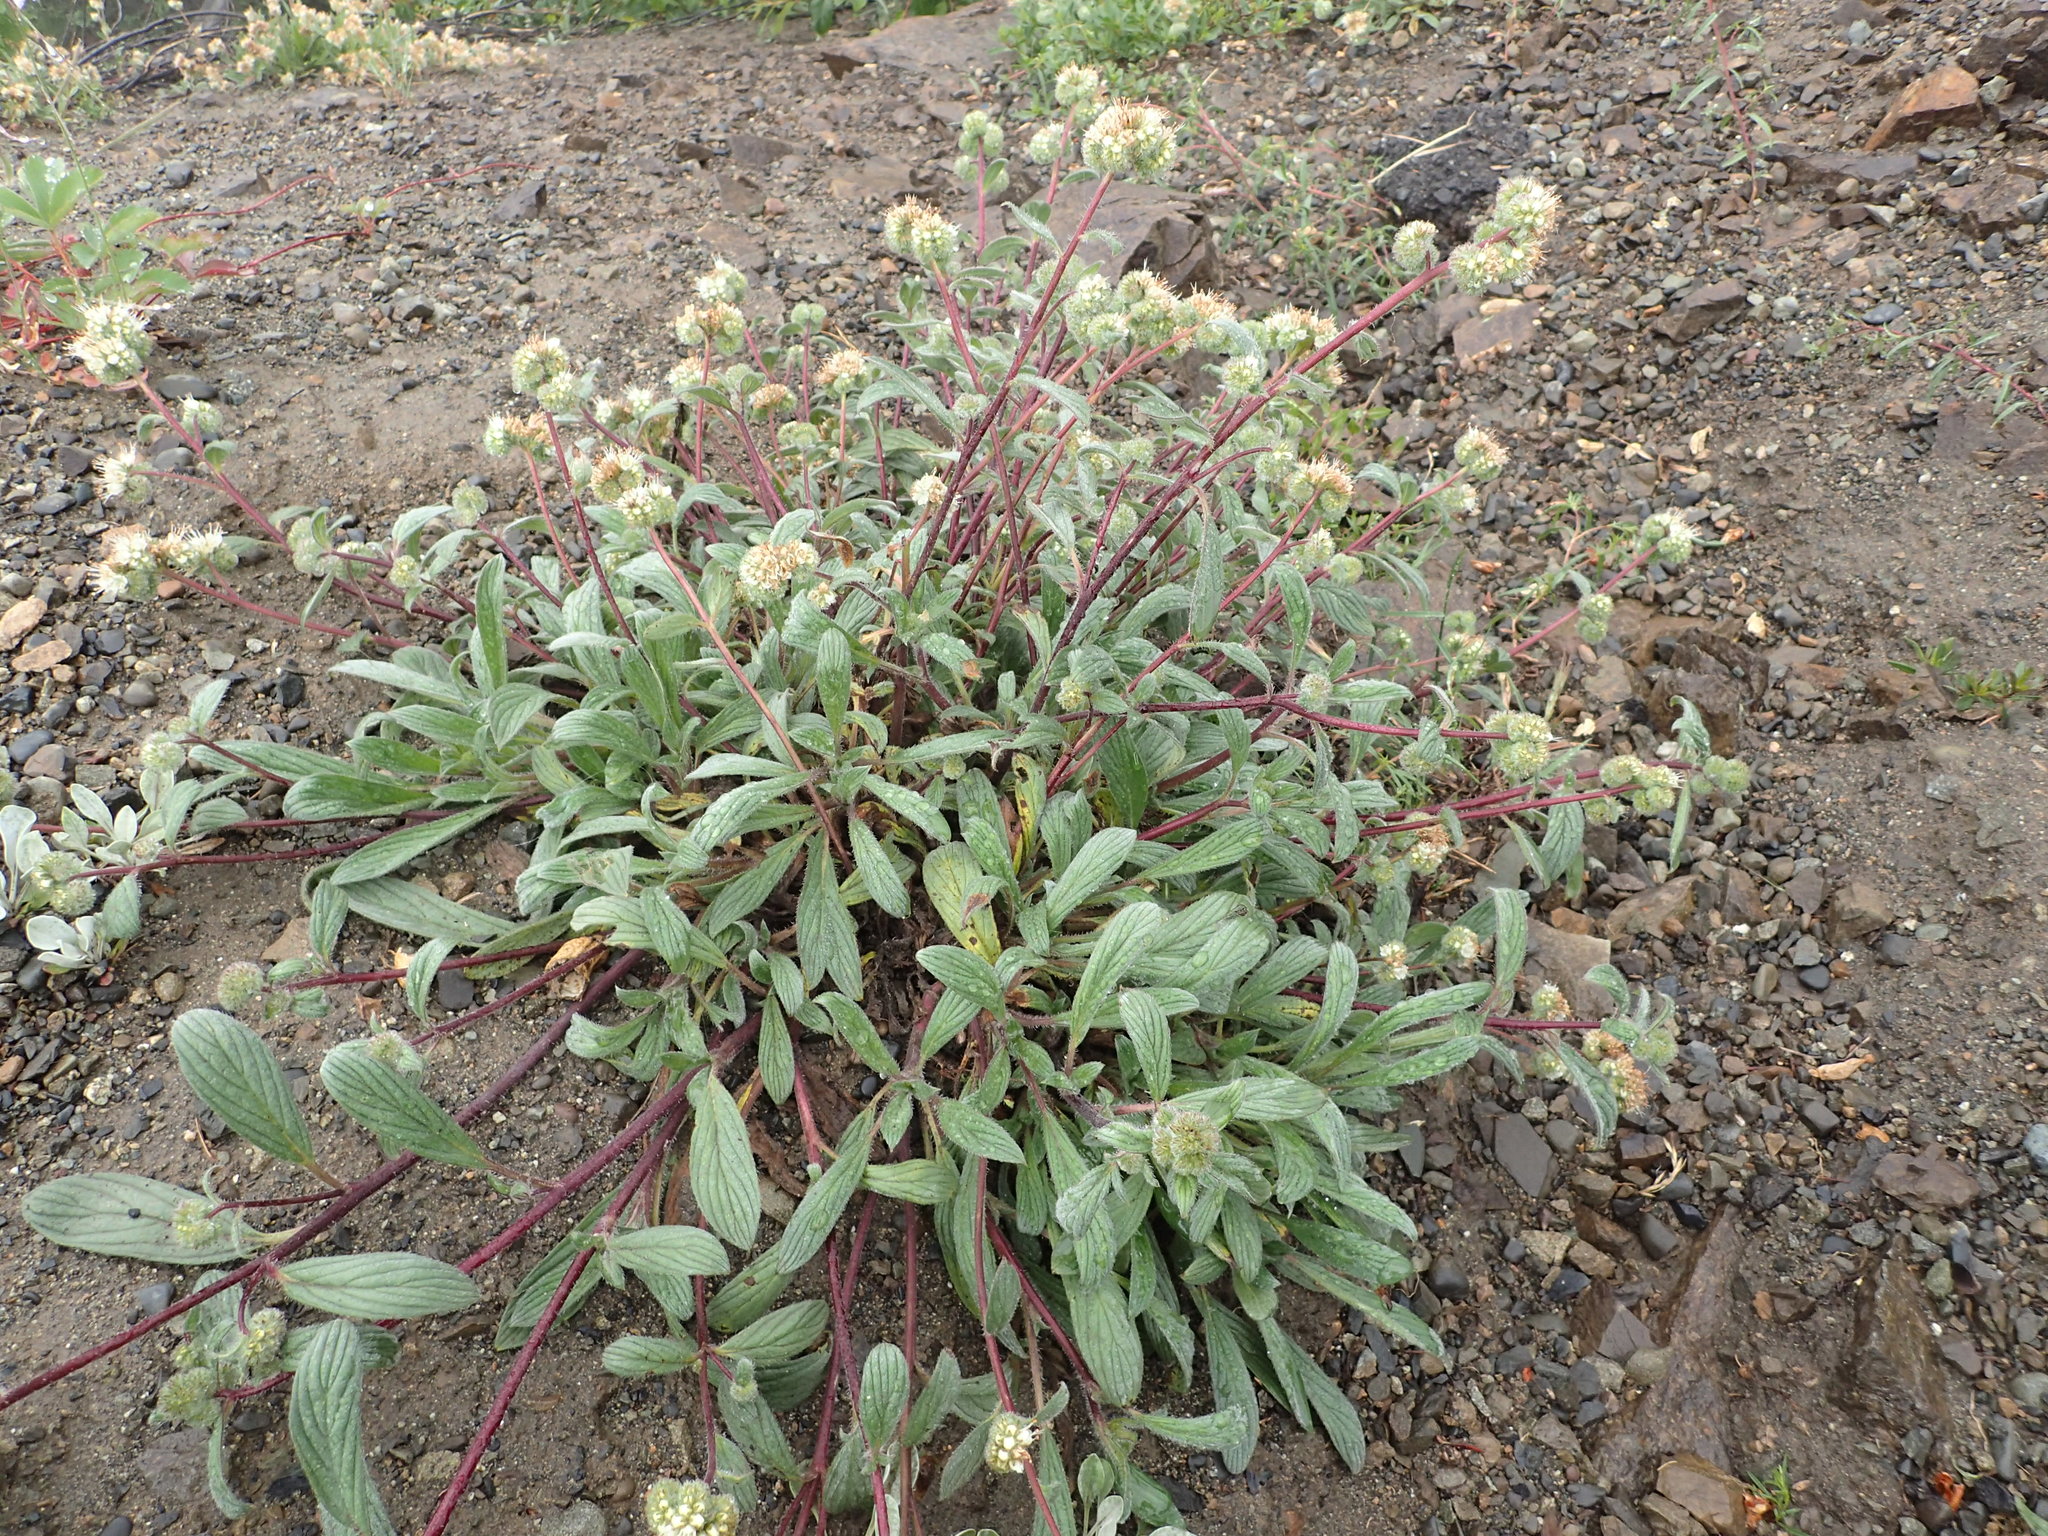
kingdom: Plantae
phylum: Tracheophyta
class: Magnoliopsida
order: Boraginales
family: Hydrophyllaceae
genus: Phacelia
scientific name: Phacelia hastata
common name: Silver-leaved phacelia
